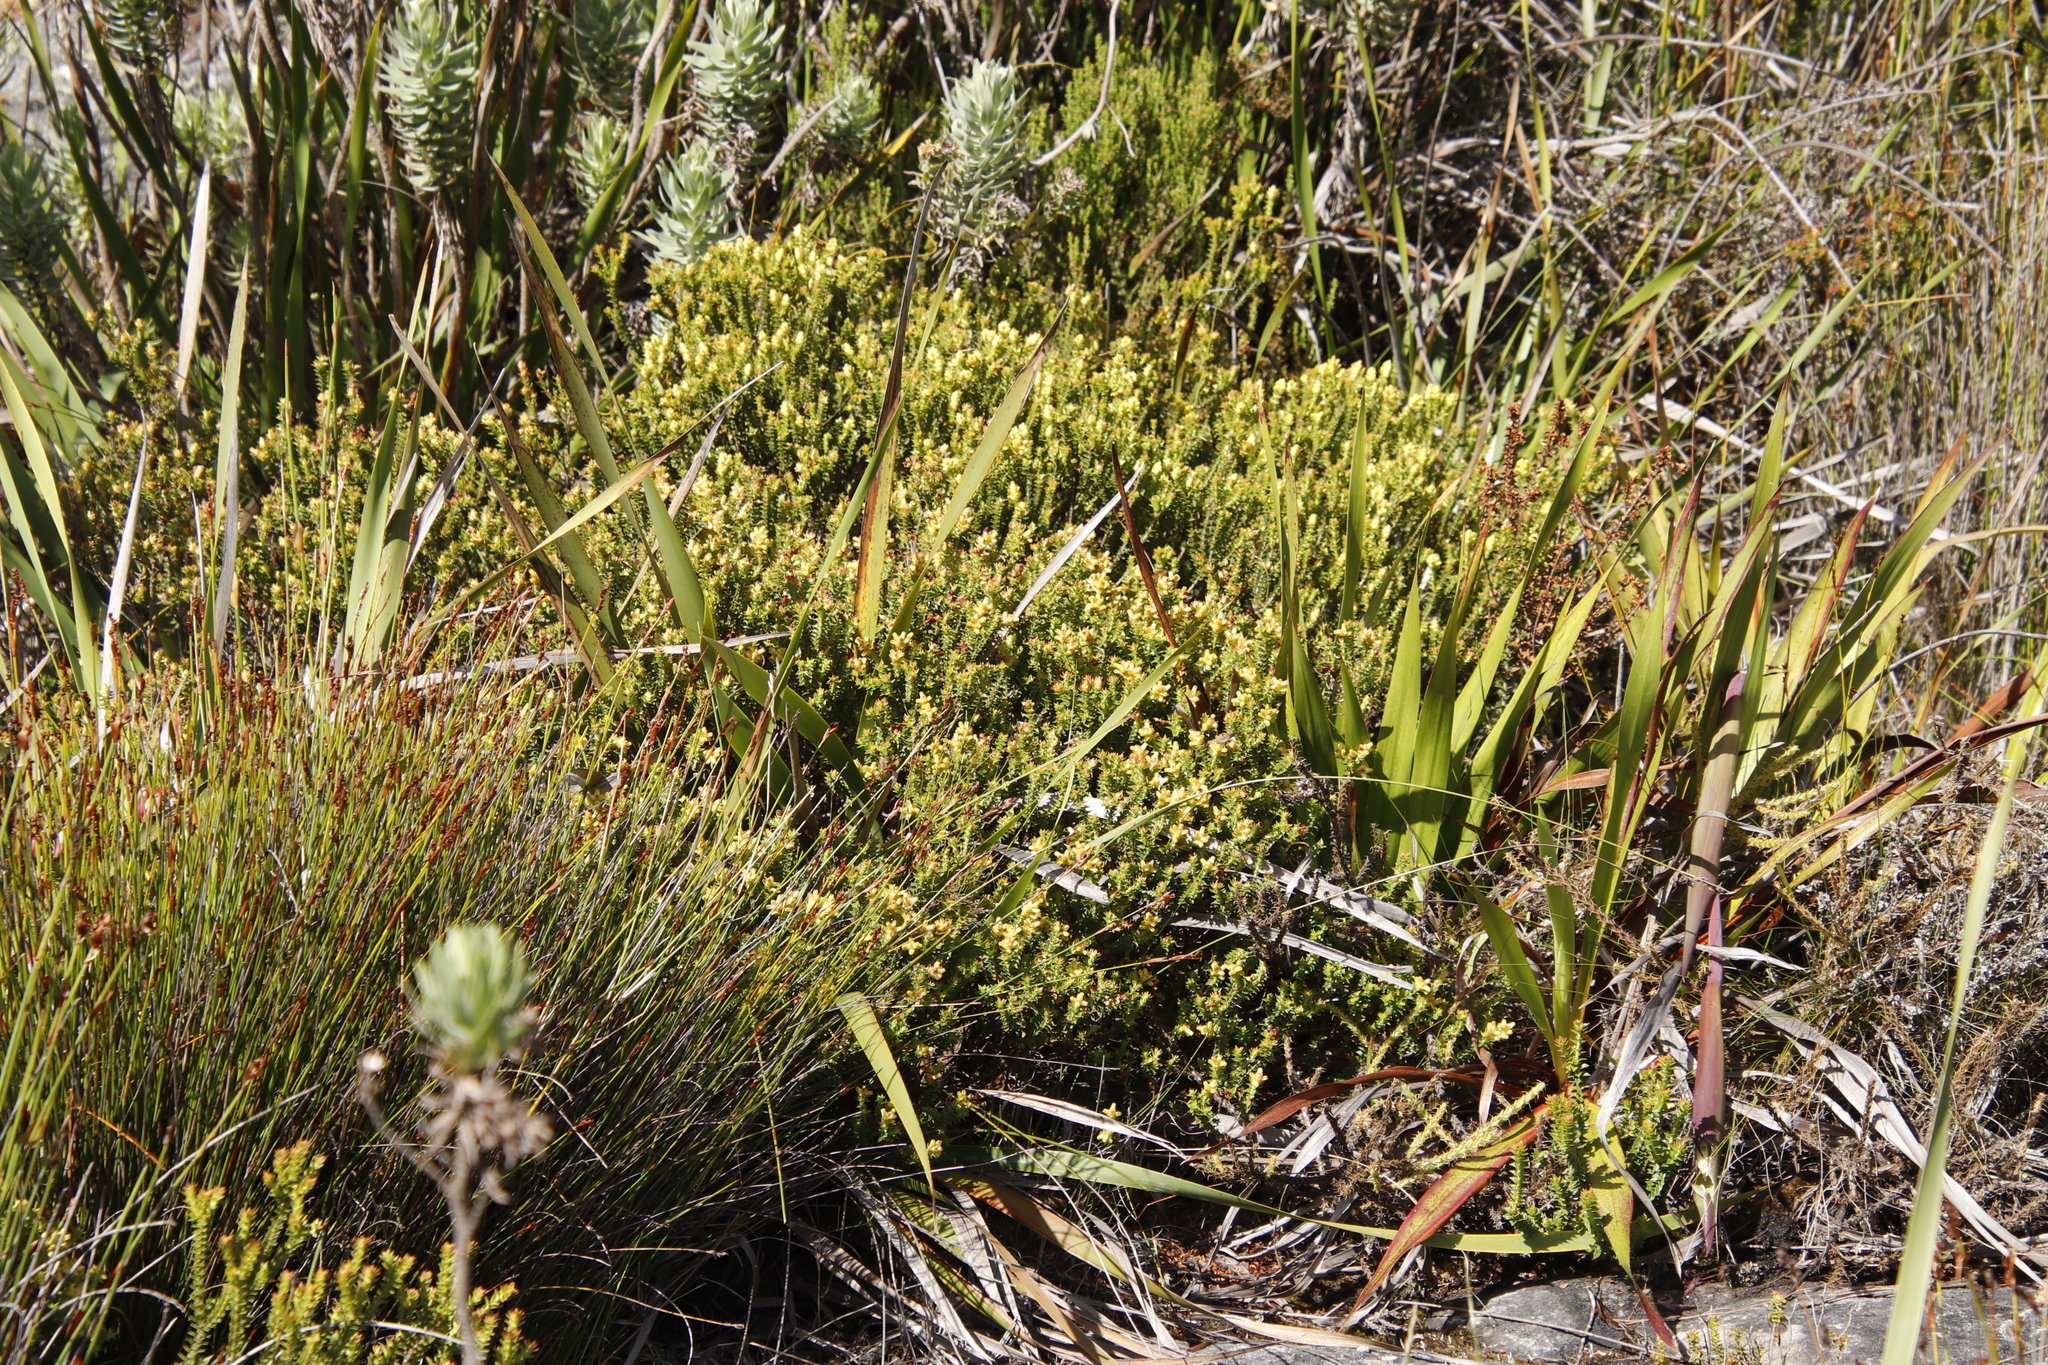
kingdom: Plantae
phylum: Tracheophyta
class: Magnoliopsida
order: Myrtales
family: Penaeaceae
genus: Penaea
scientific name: Penaea mucronata
